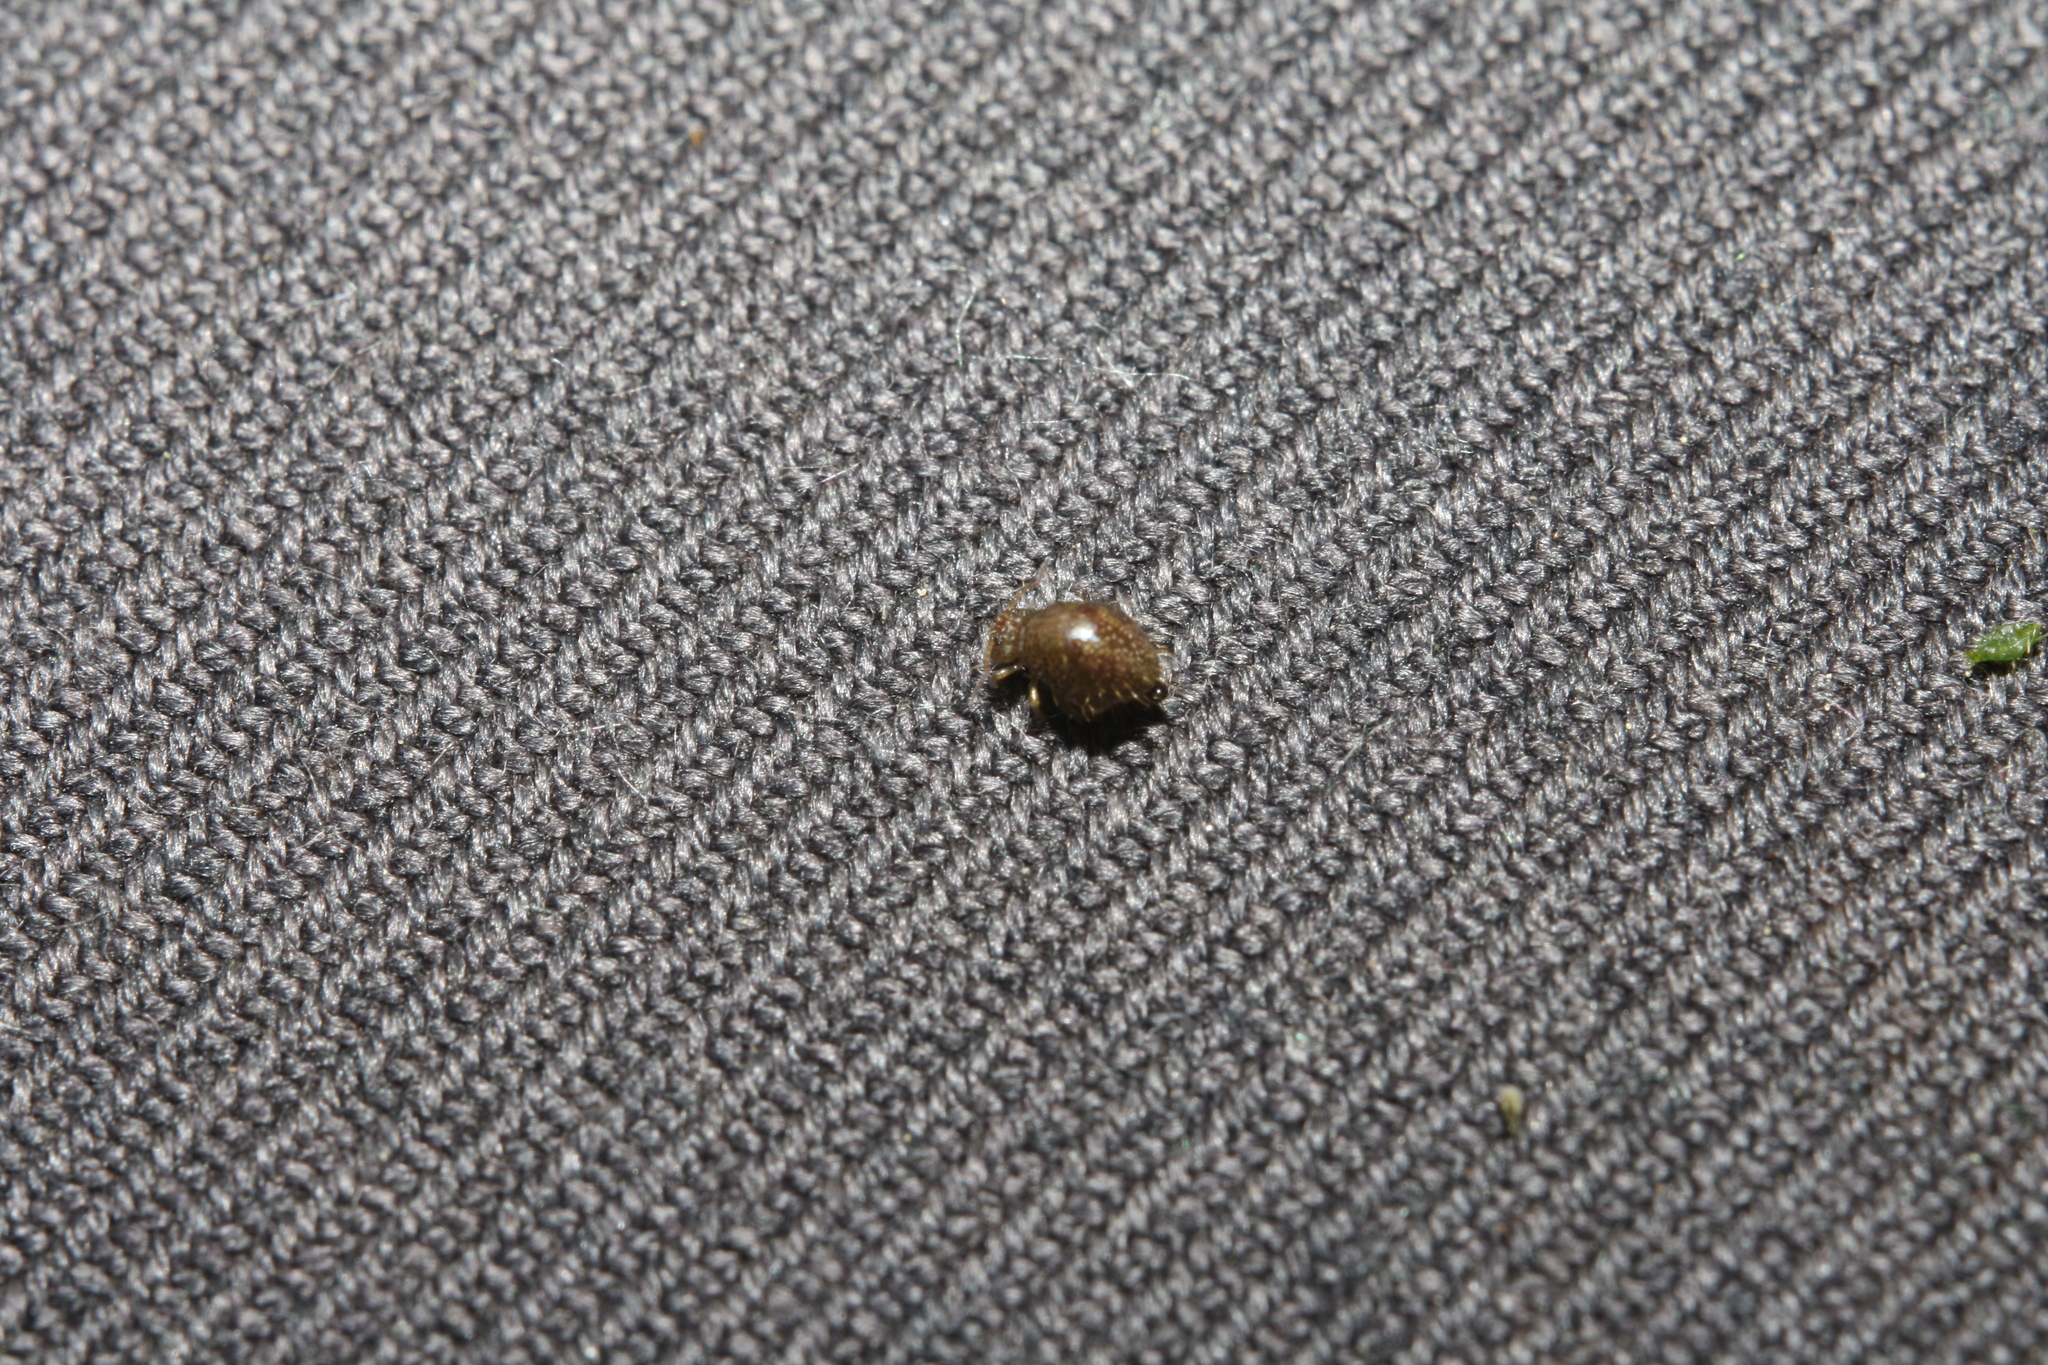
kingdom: Animalia
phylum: Arthropoda
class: Collembola
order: Symphypleona
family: Sminthuridae
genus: Allacma
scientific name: Allacma fusca
